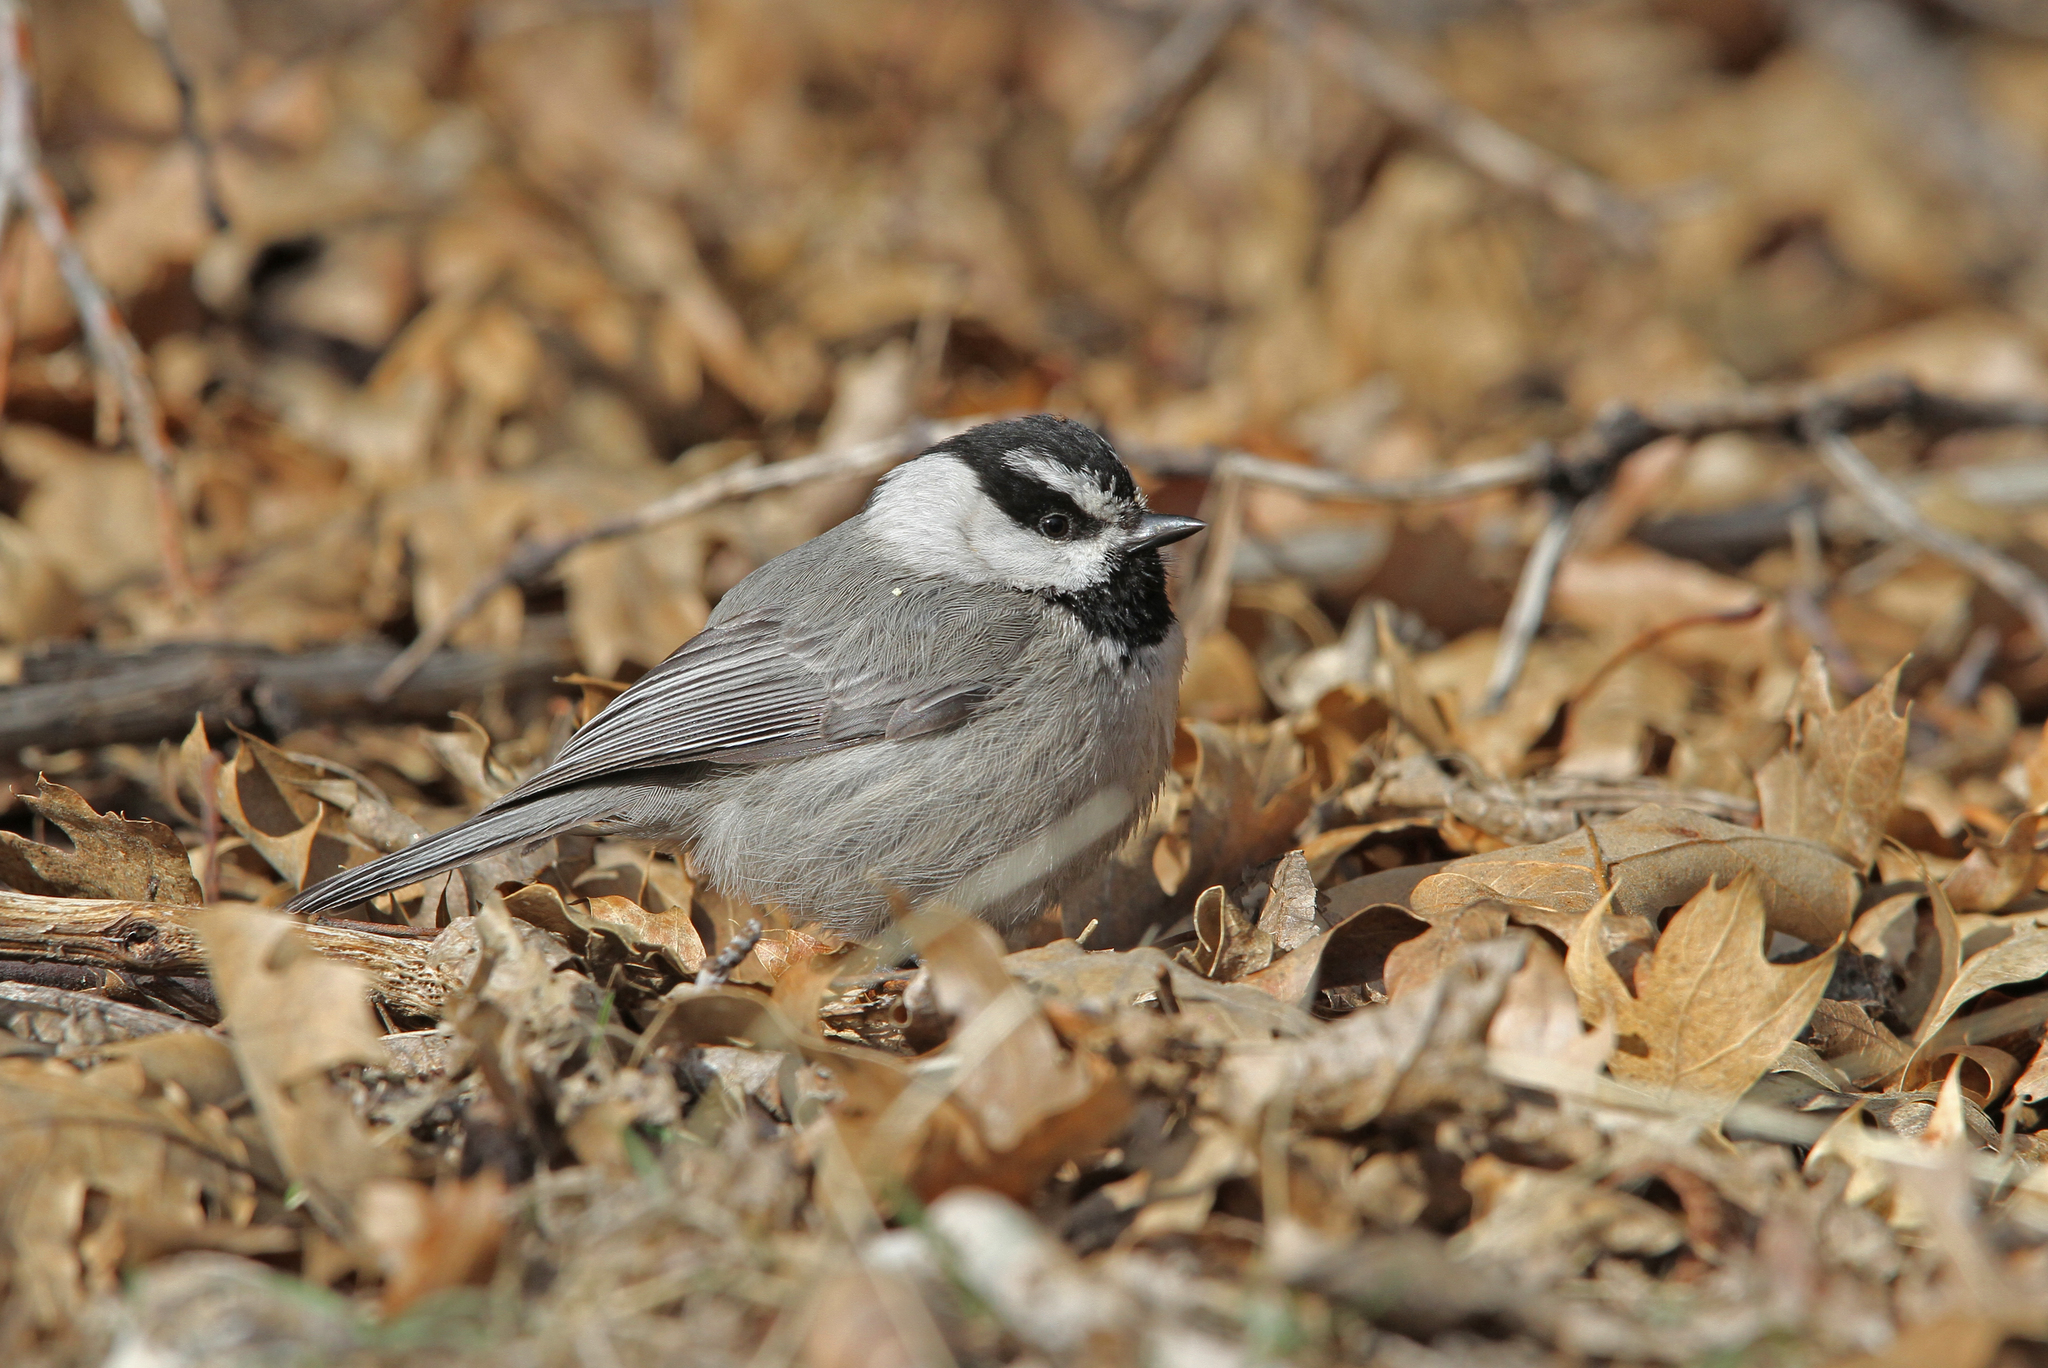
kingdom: Animalia
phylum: Chordata
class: Aves
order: Passeriformes
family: Paridae
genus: Poecile
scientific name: Poecile gambeli
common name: Mountain chickadee
